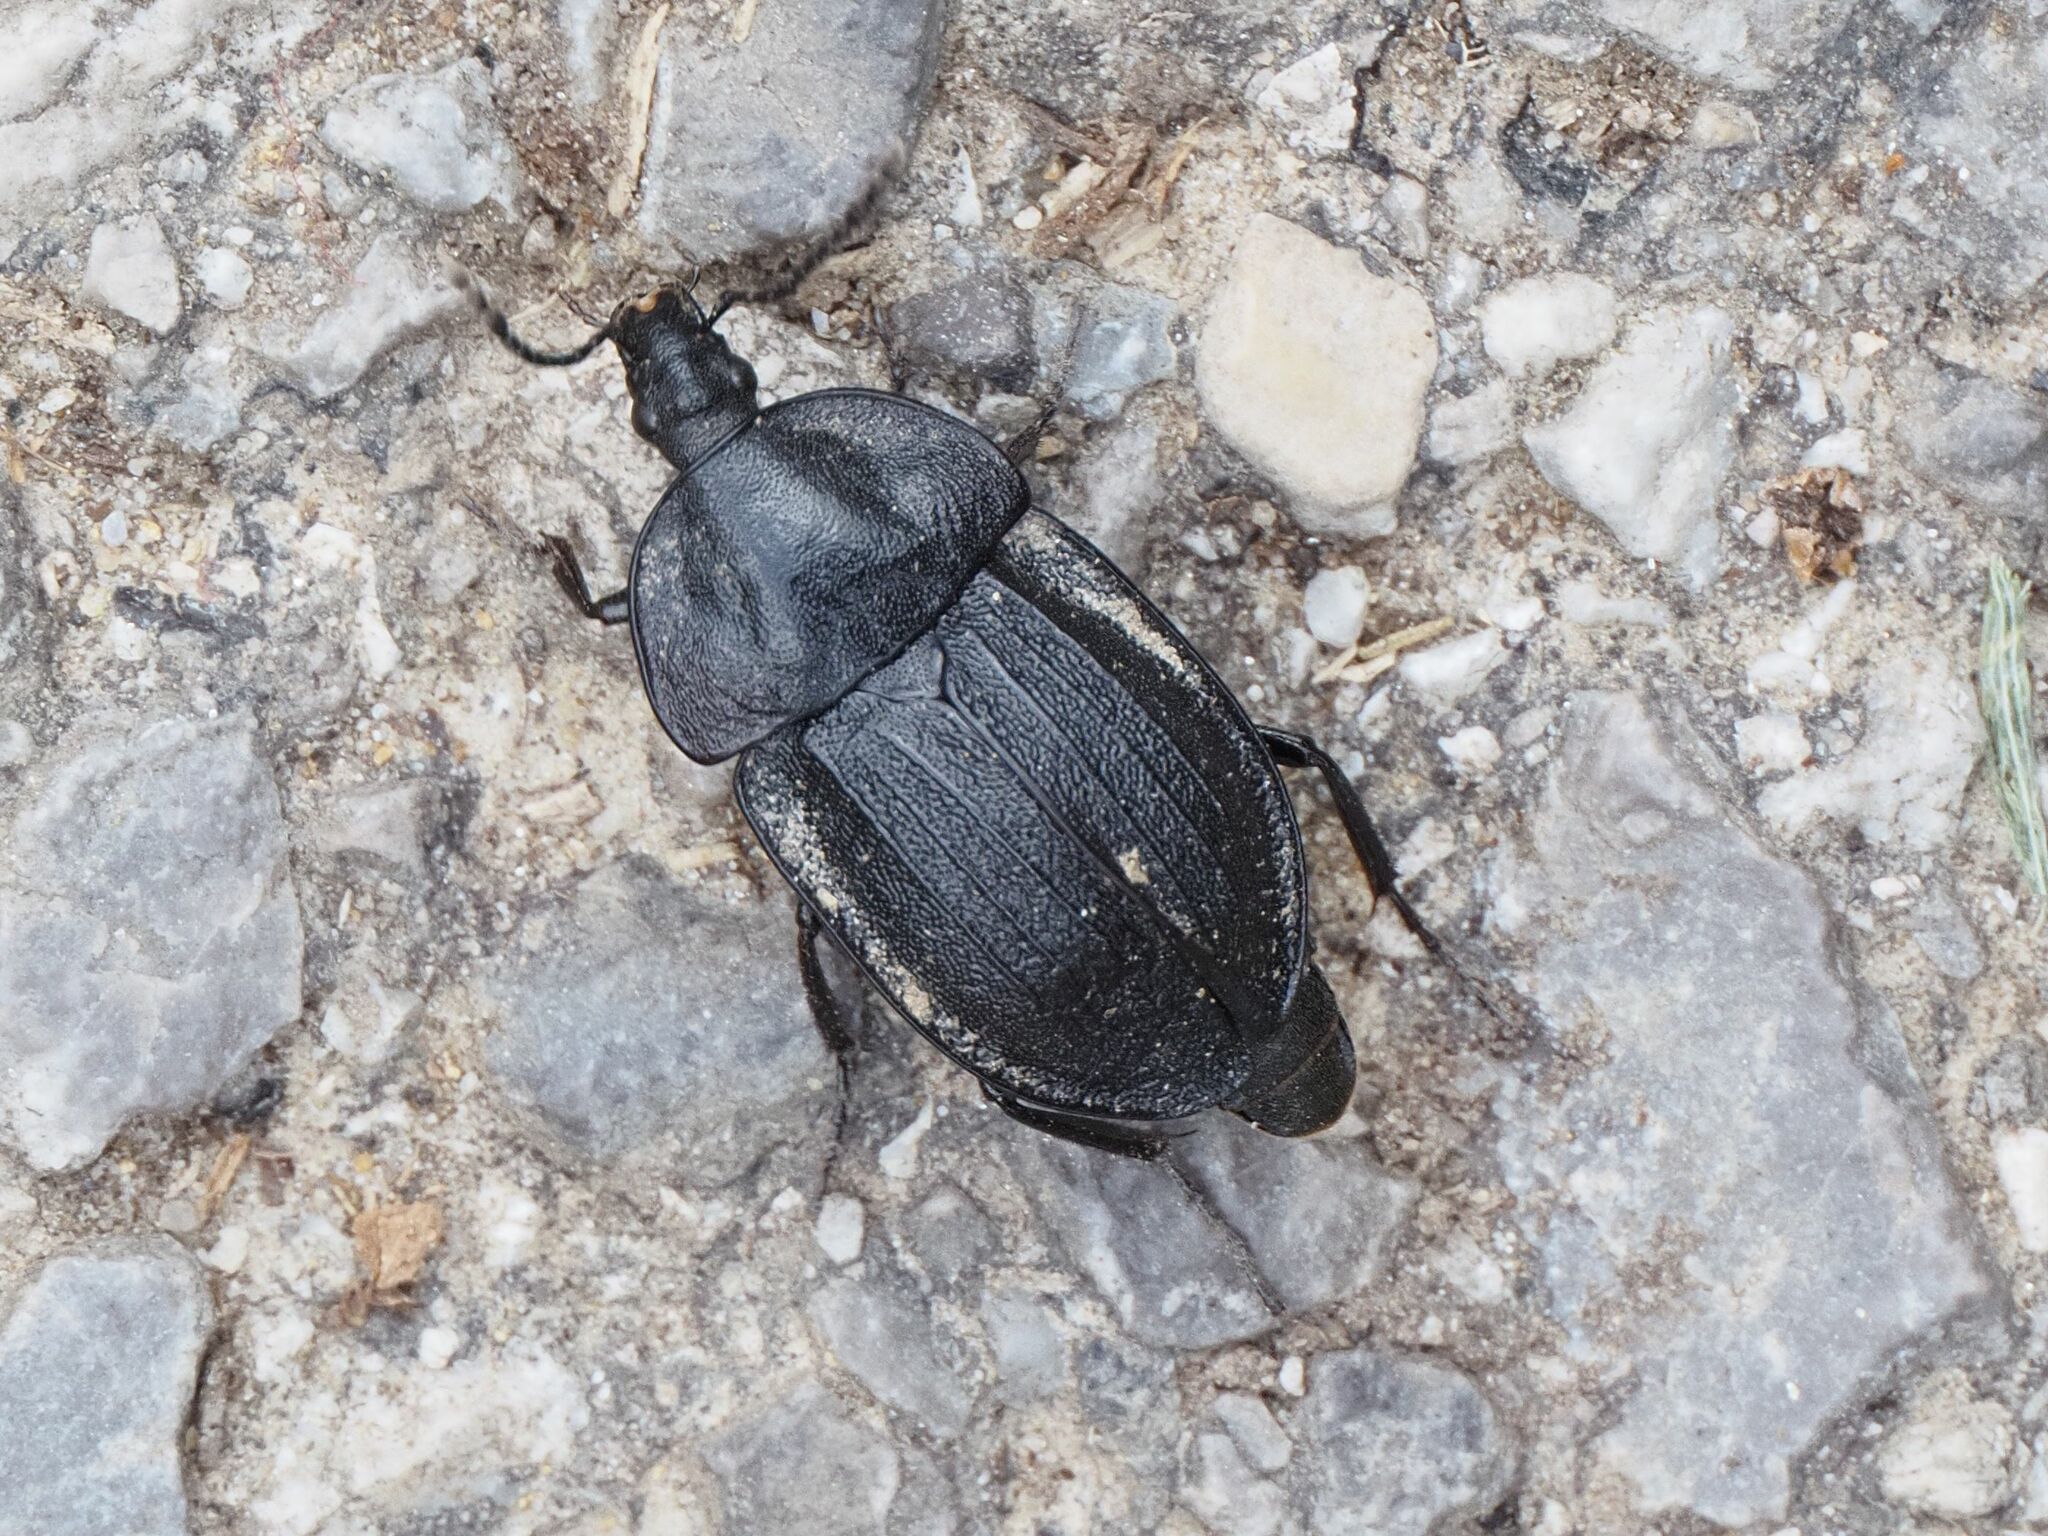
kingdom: Animalia
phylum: Arthropoda
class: Insecta
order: Coleoptera
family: Staphylinidae
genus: Silpha
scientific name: Silpha atrata
